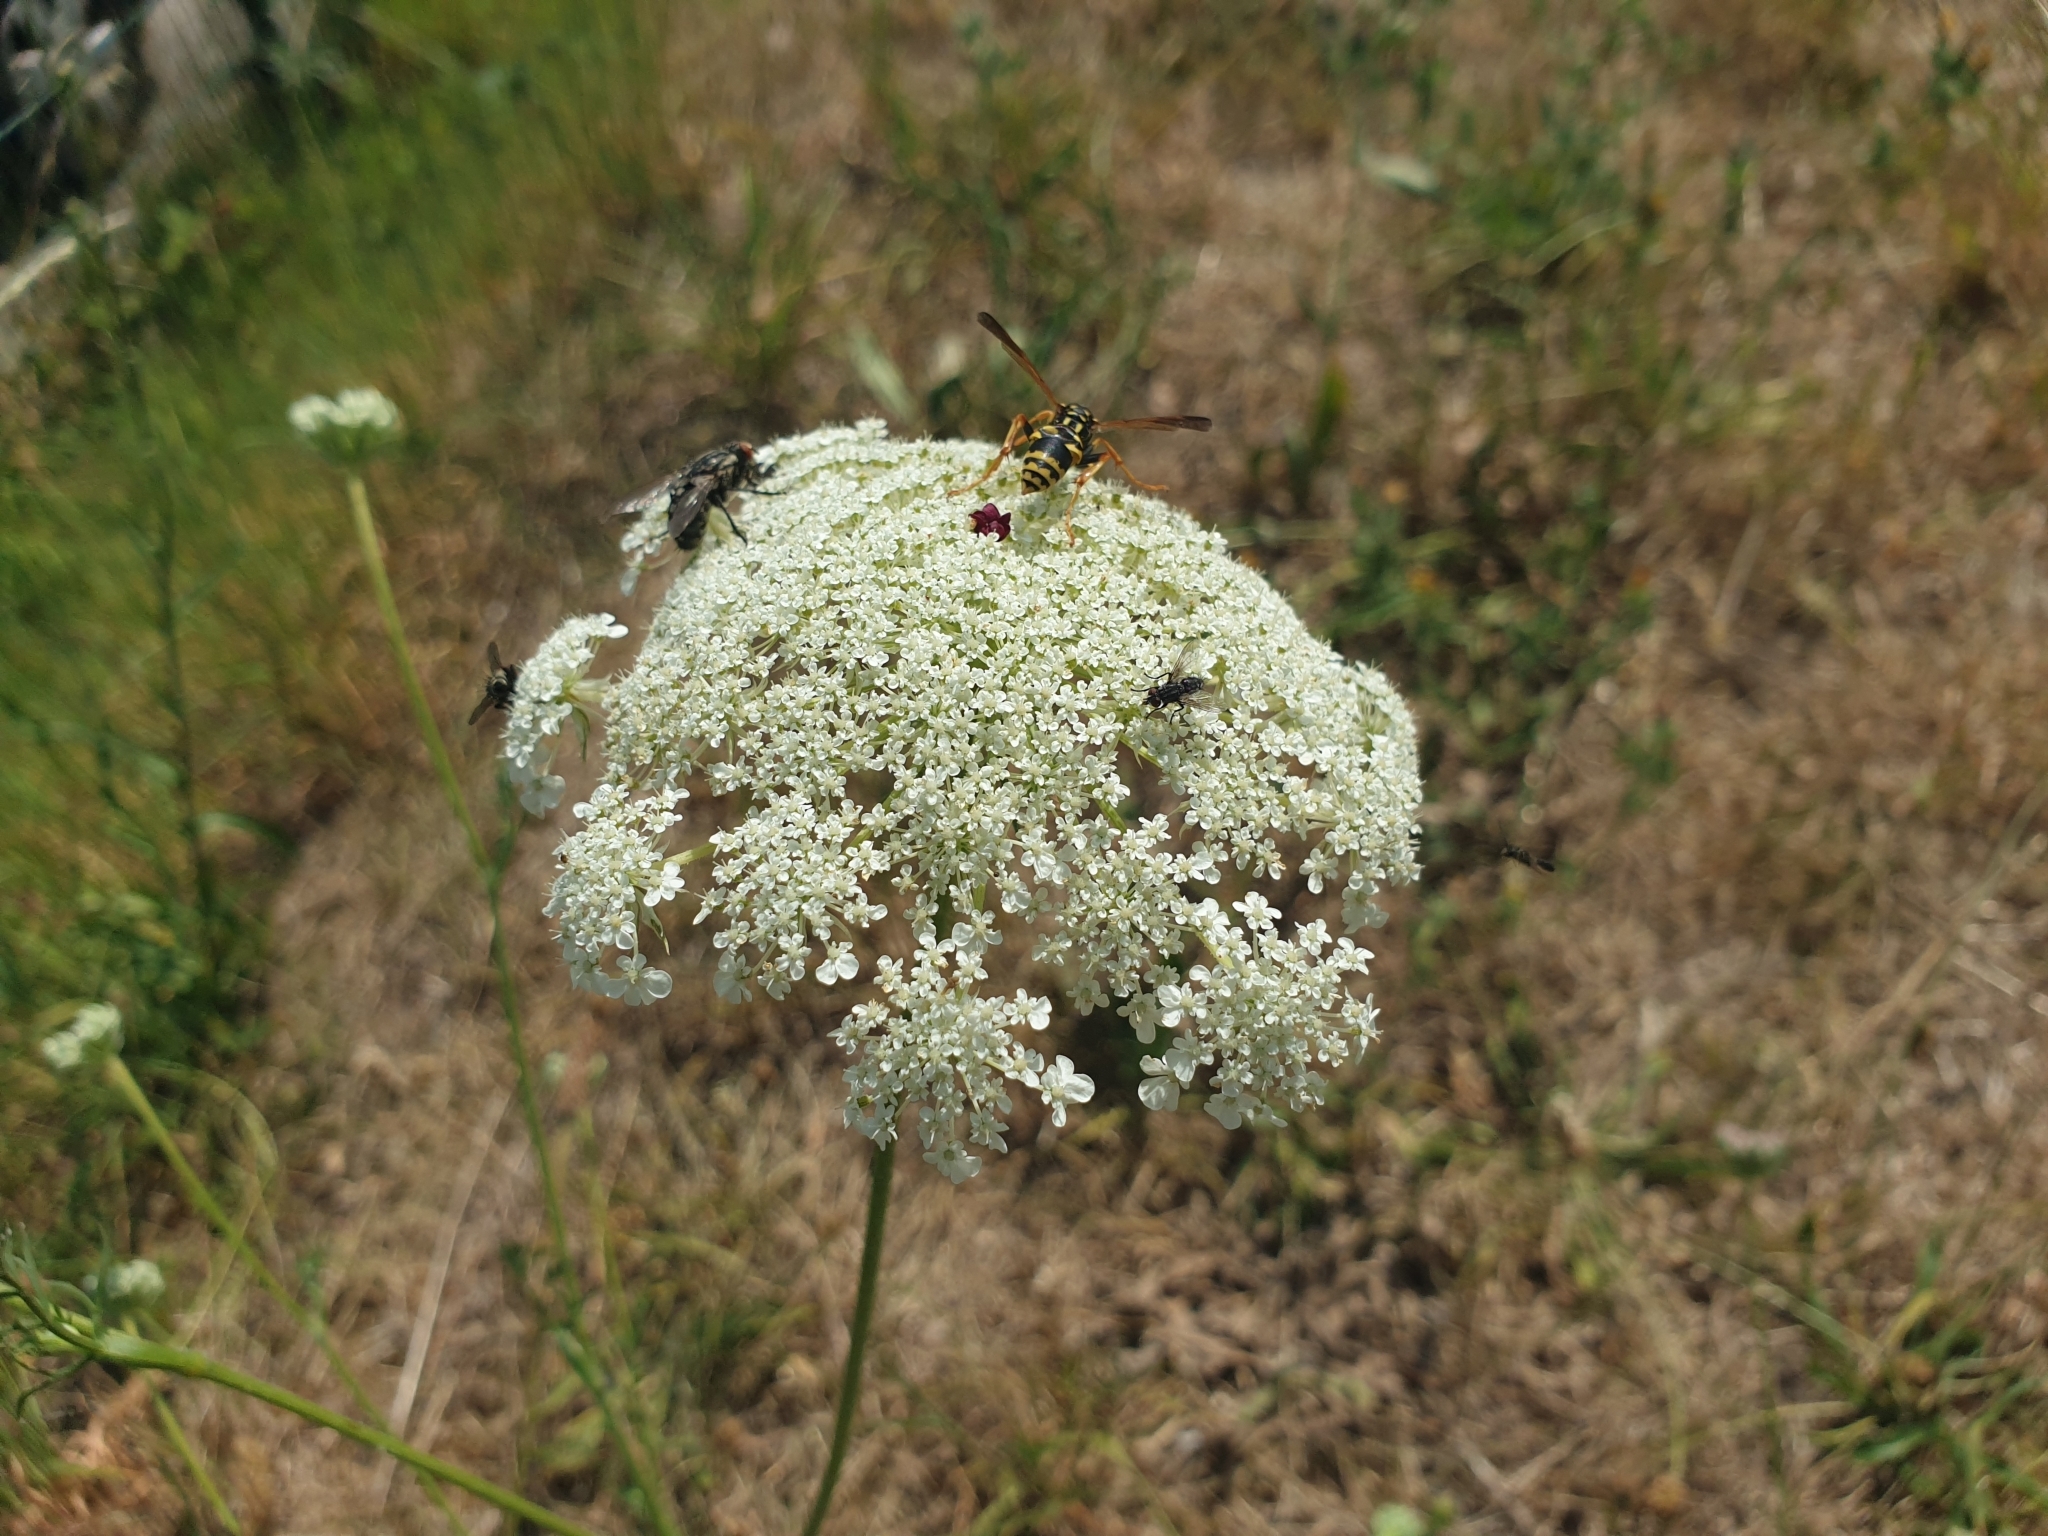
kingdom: Animalia
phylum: Arthropoda
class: Insecta
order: Hymenoptera
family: Eumenidae
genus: Polistes
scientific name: Polistes dominula
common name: Paper wasp
